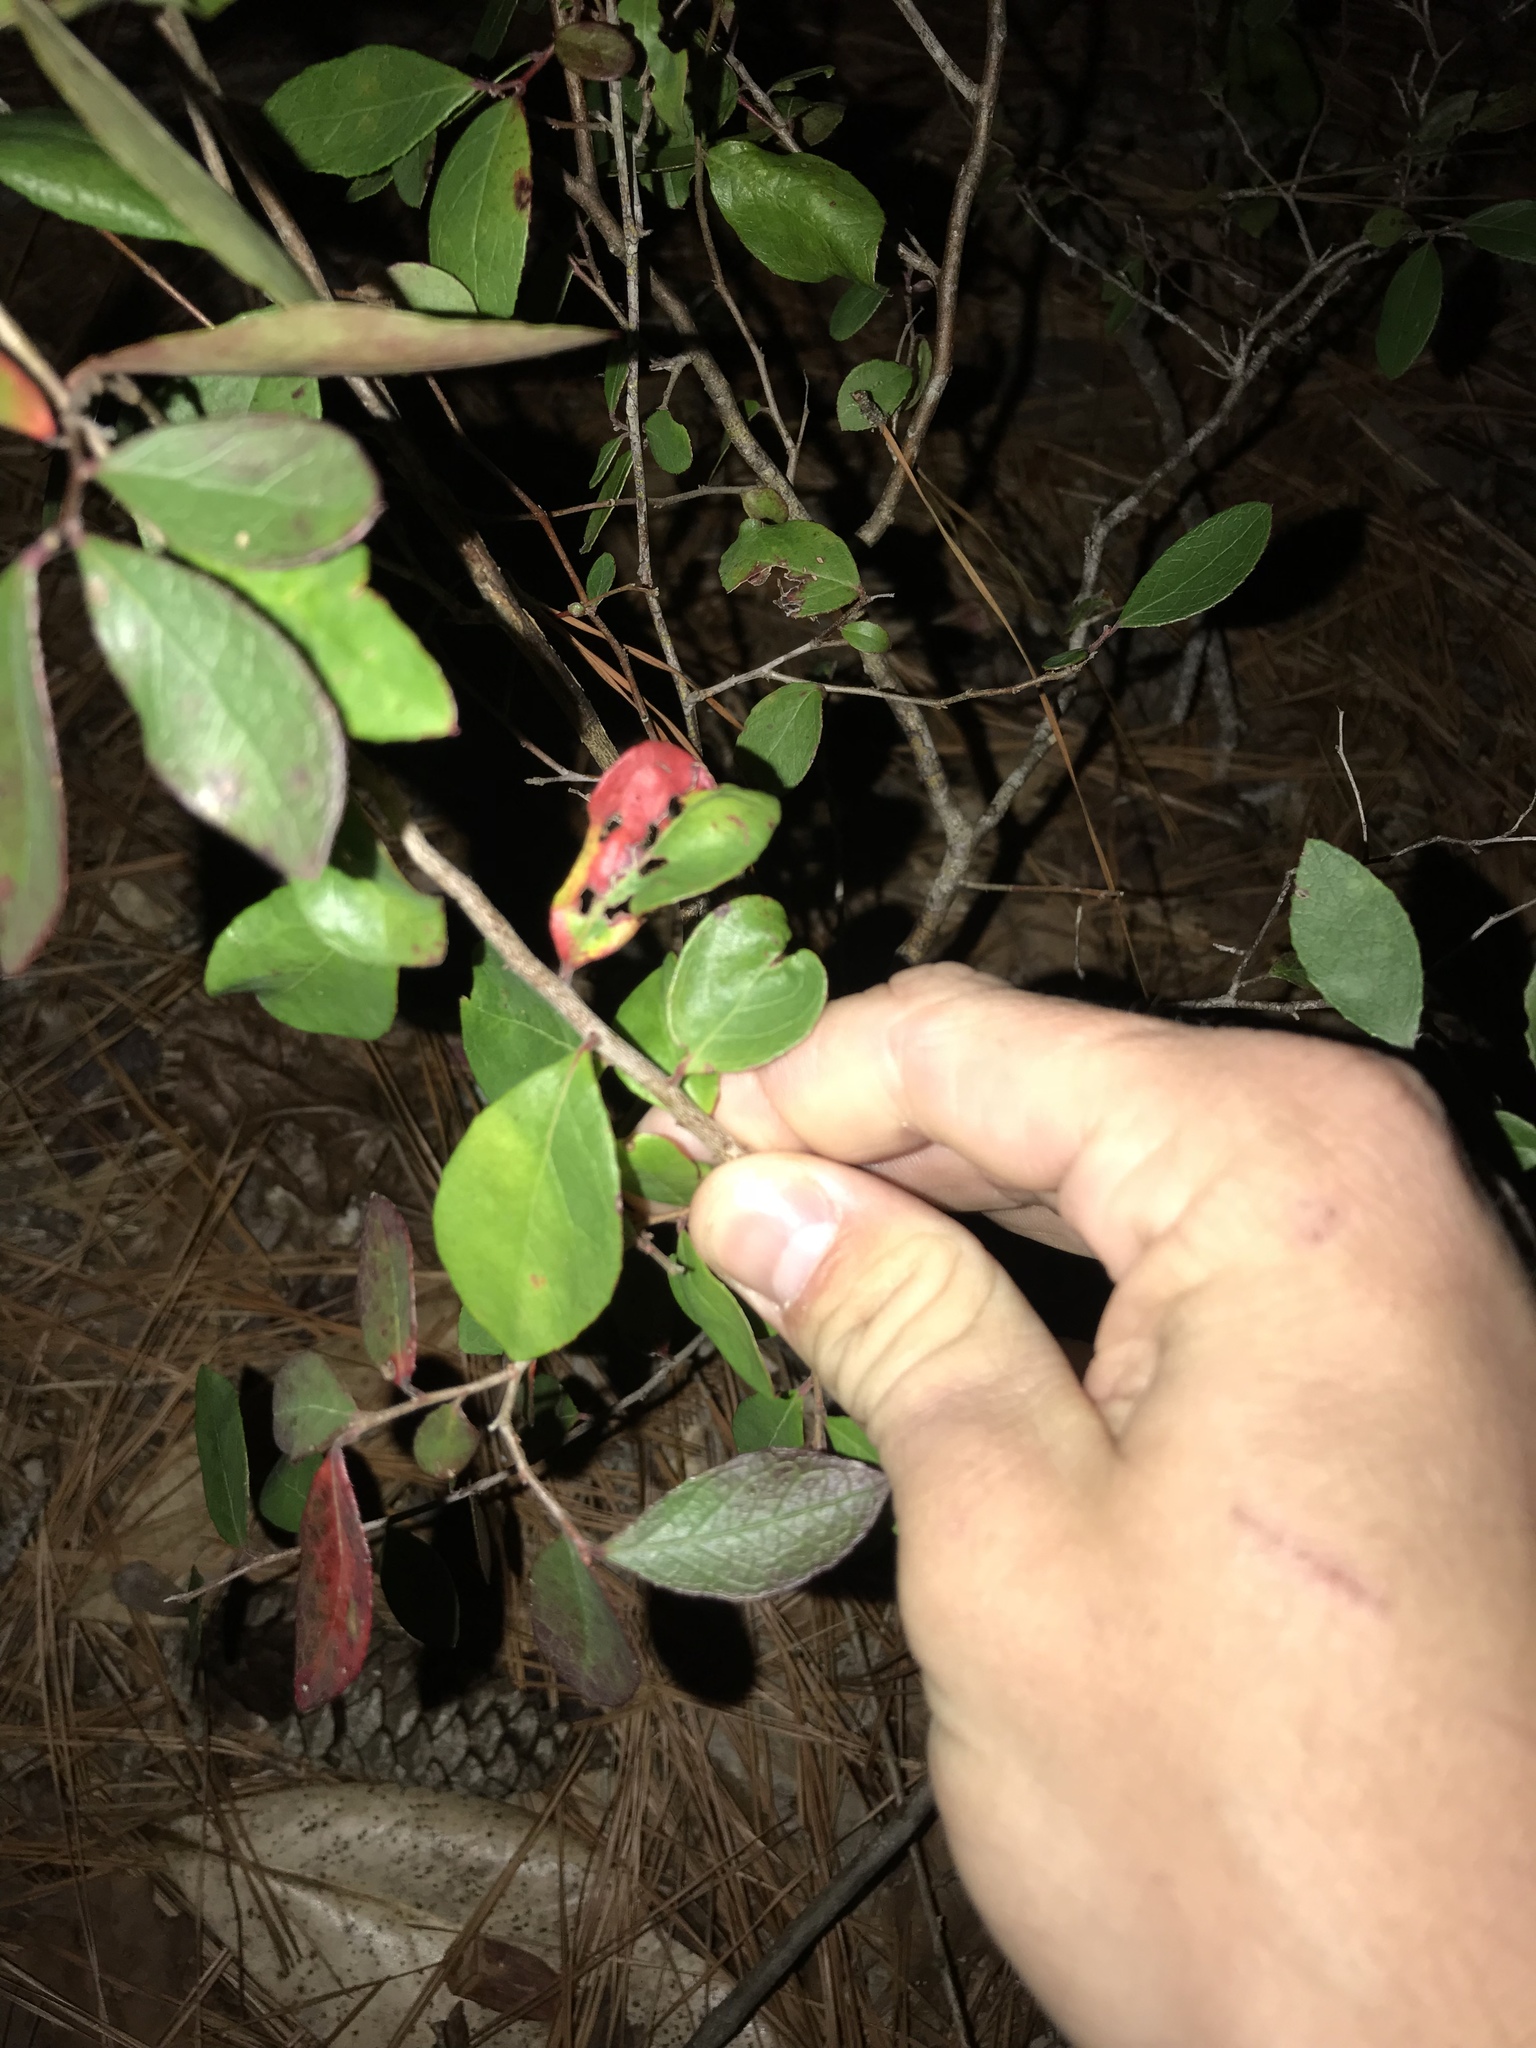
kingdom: Plantae
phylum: Tracheophyta
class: Magnoliopsida
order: Ericales
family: Ericaceae
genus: Vaccinium
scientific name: Vaccinium arboreum
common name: Farkleberry
